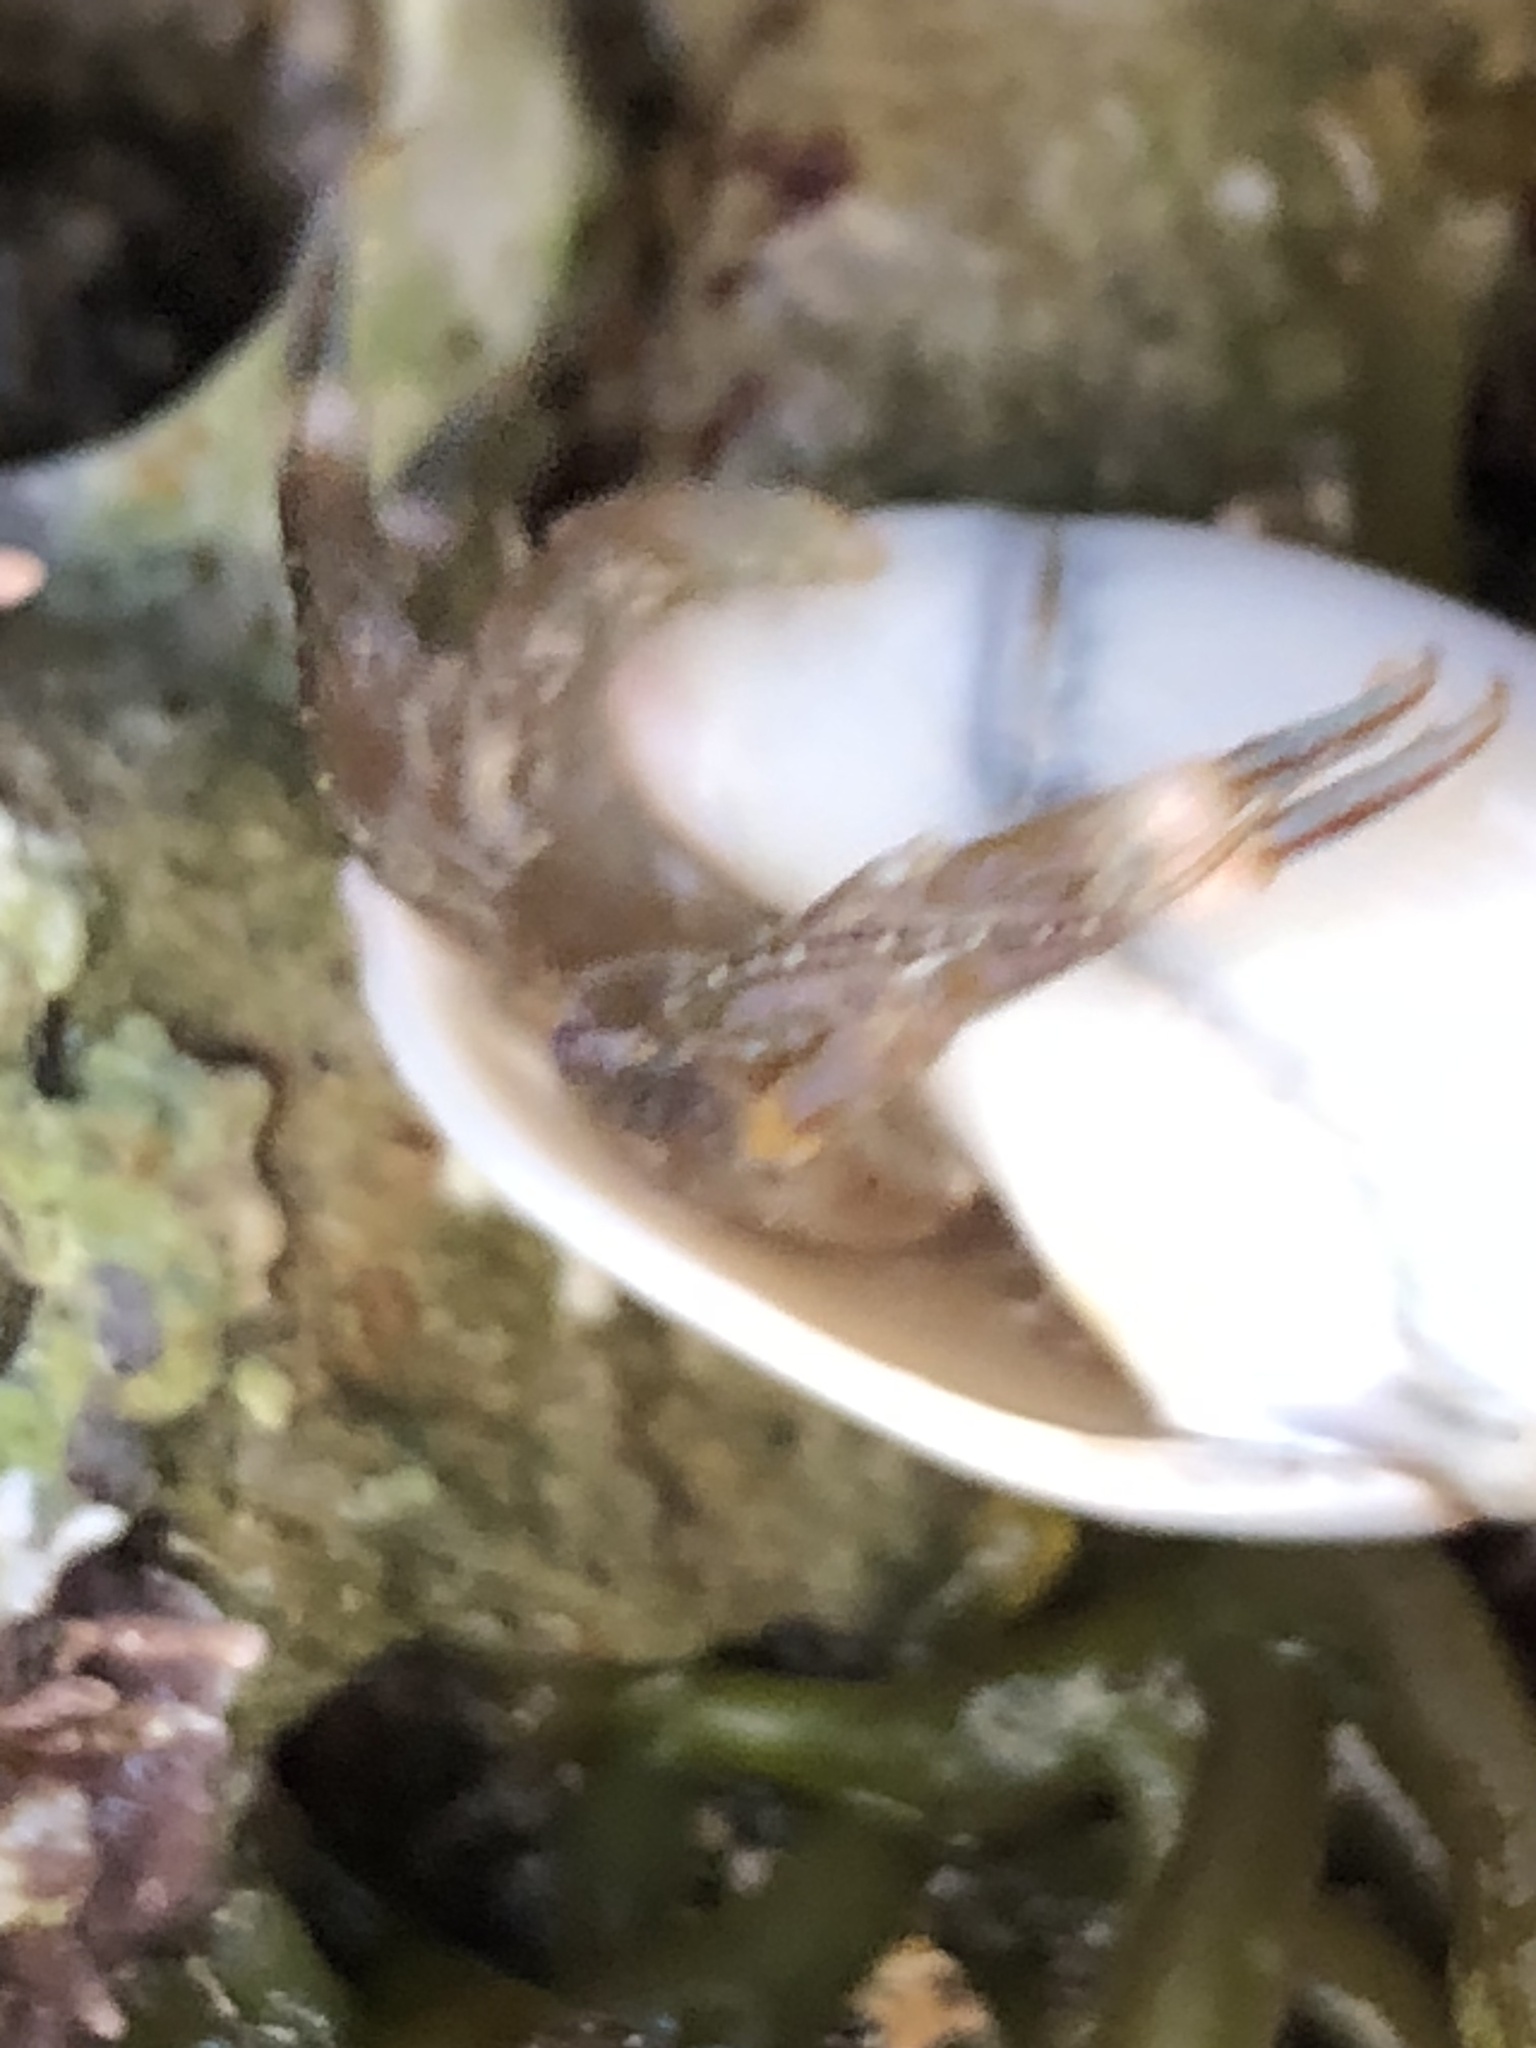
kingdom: Animalia
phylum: Arthropoda
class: Malacostraca
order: Decapoda
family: Paguridae
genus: Pagurus
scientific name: Pagurus venturensis
